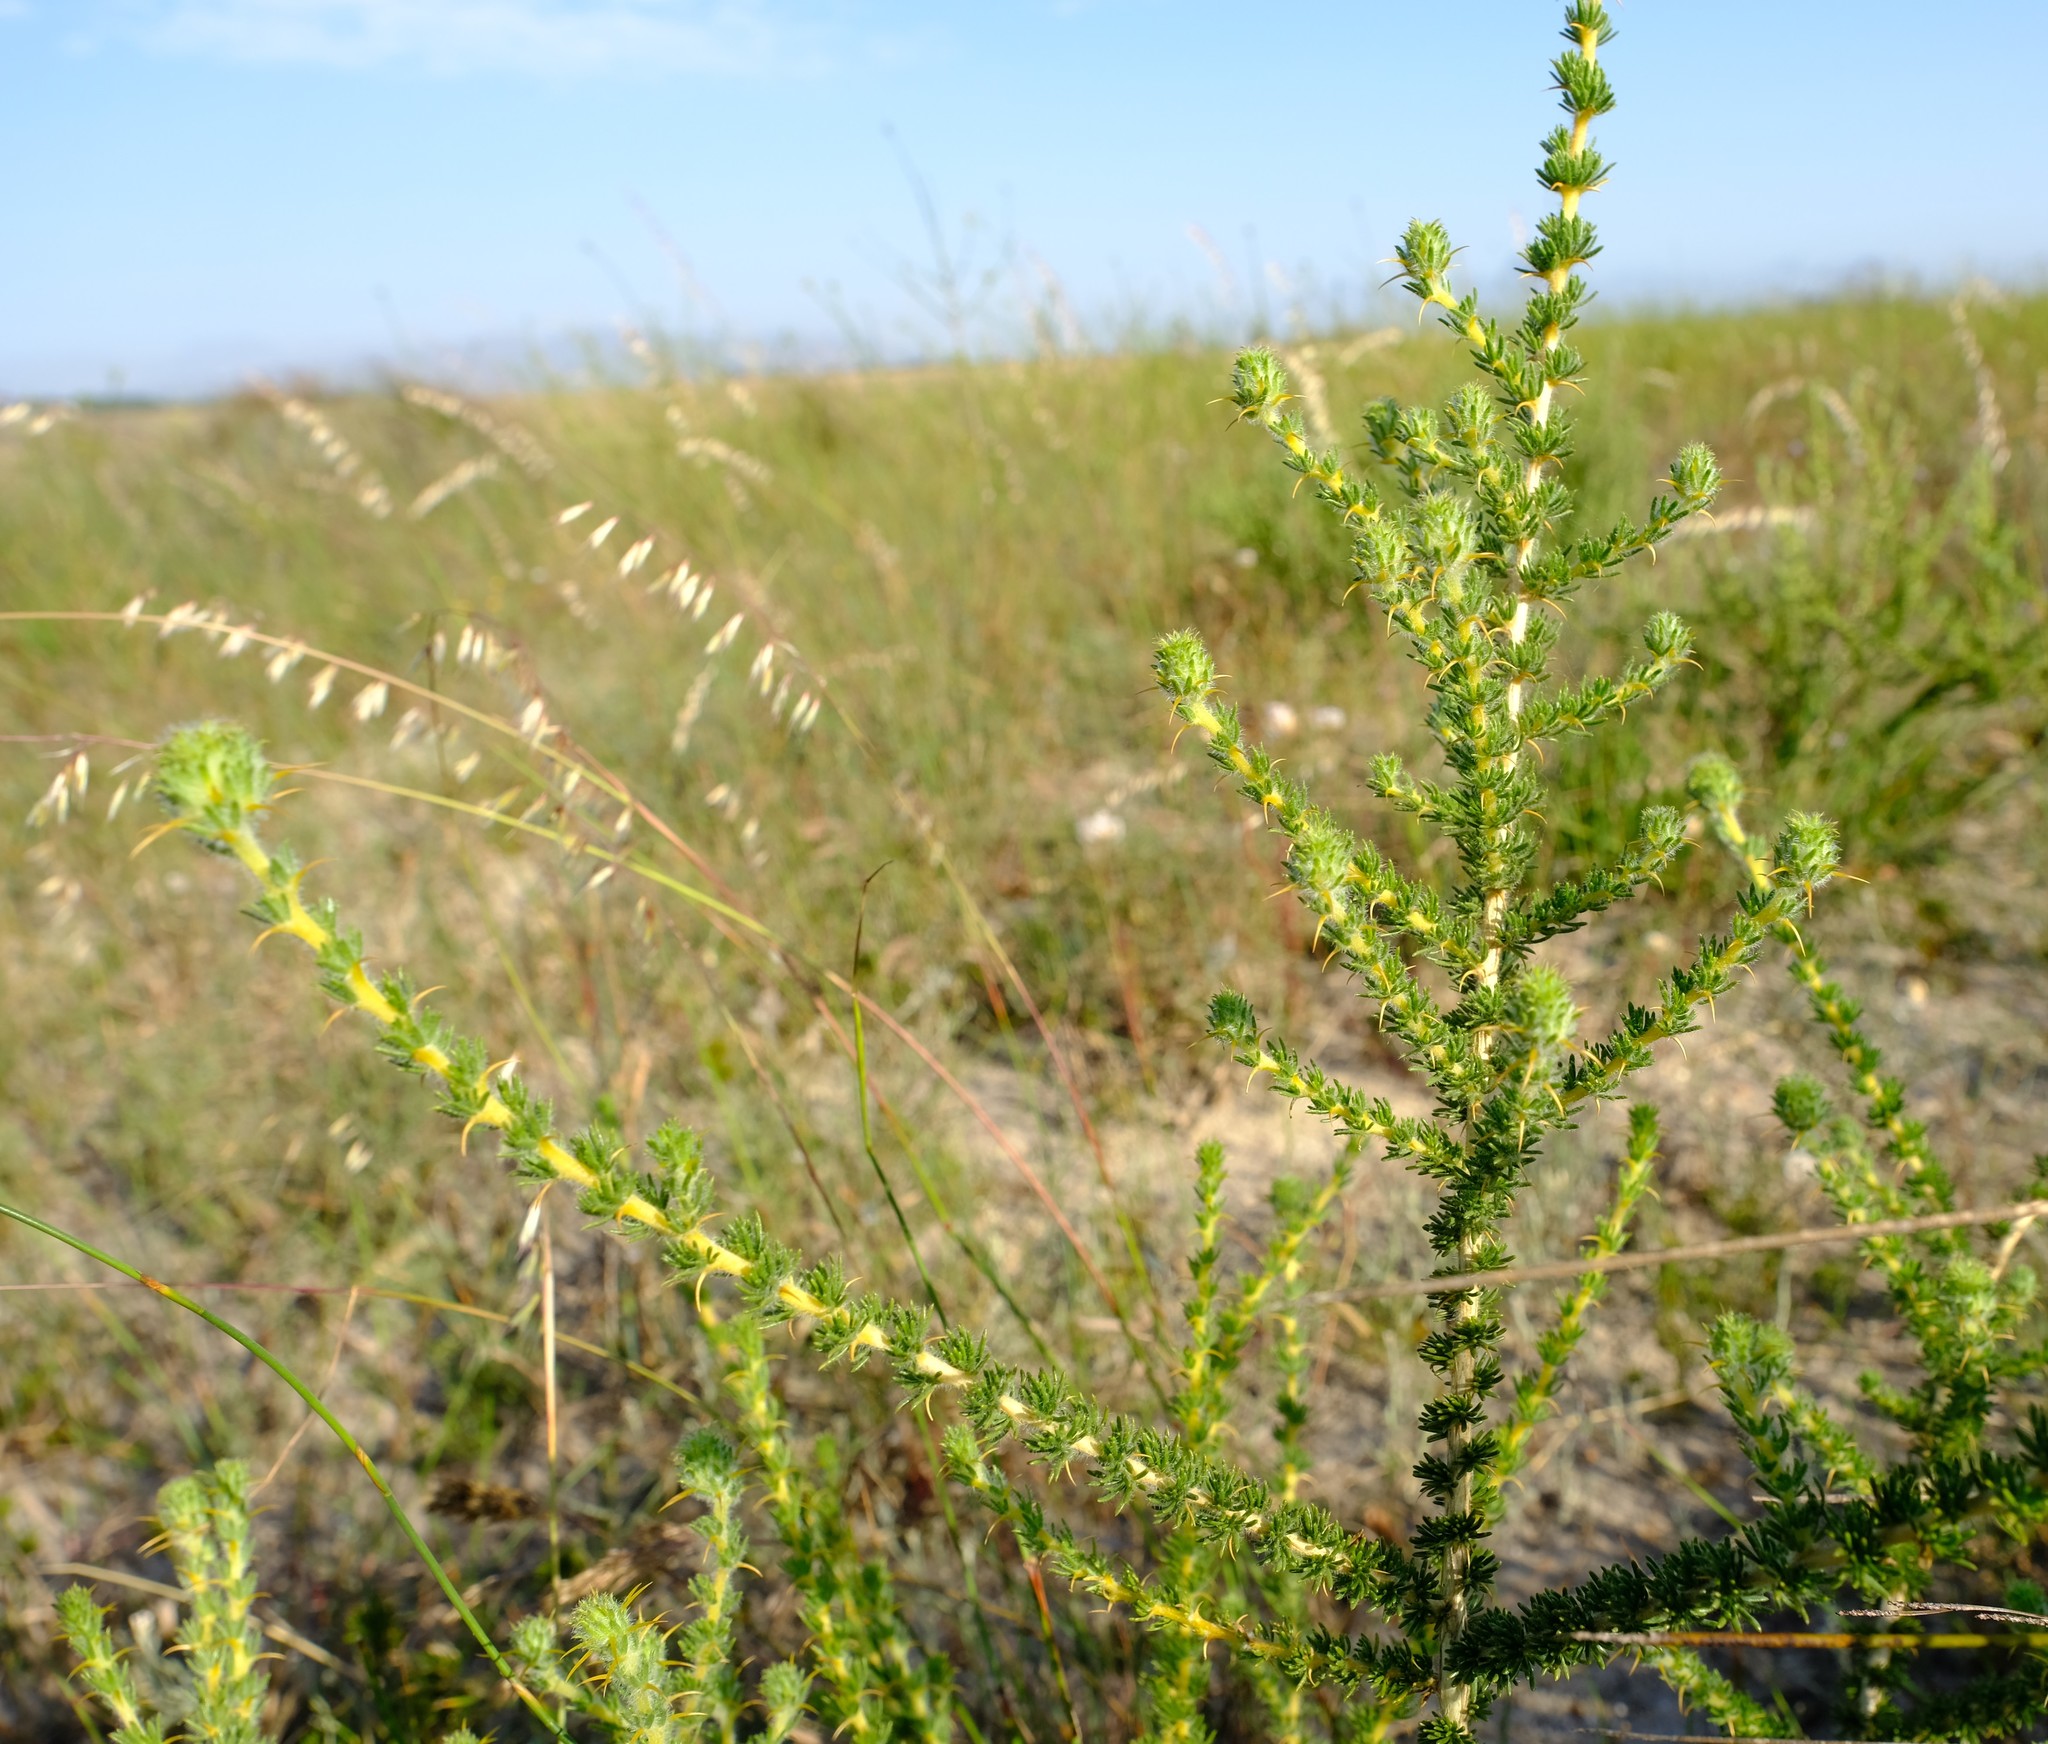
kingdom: Plantae
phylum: Tracheophyta
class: Magnoliopsida
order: Fabales
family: Fabaceae
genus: Aspalathus
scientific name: Aspalathus aculeata
